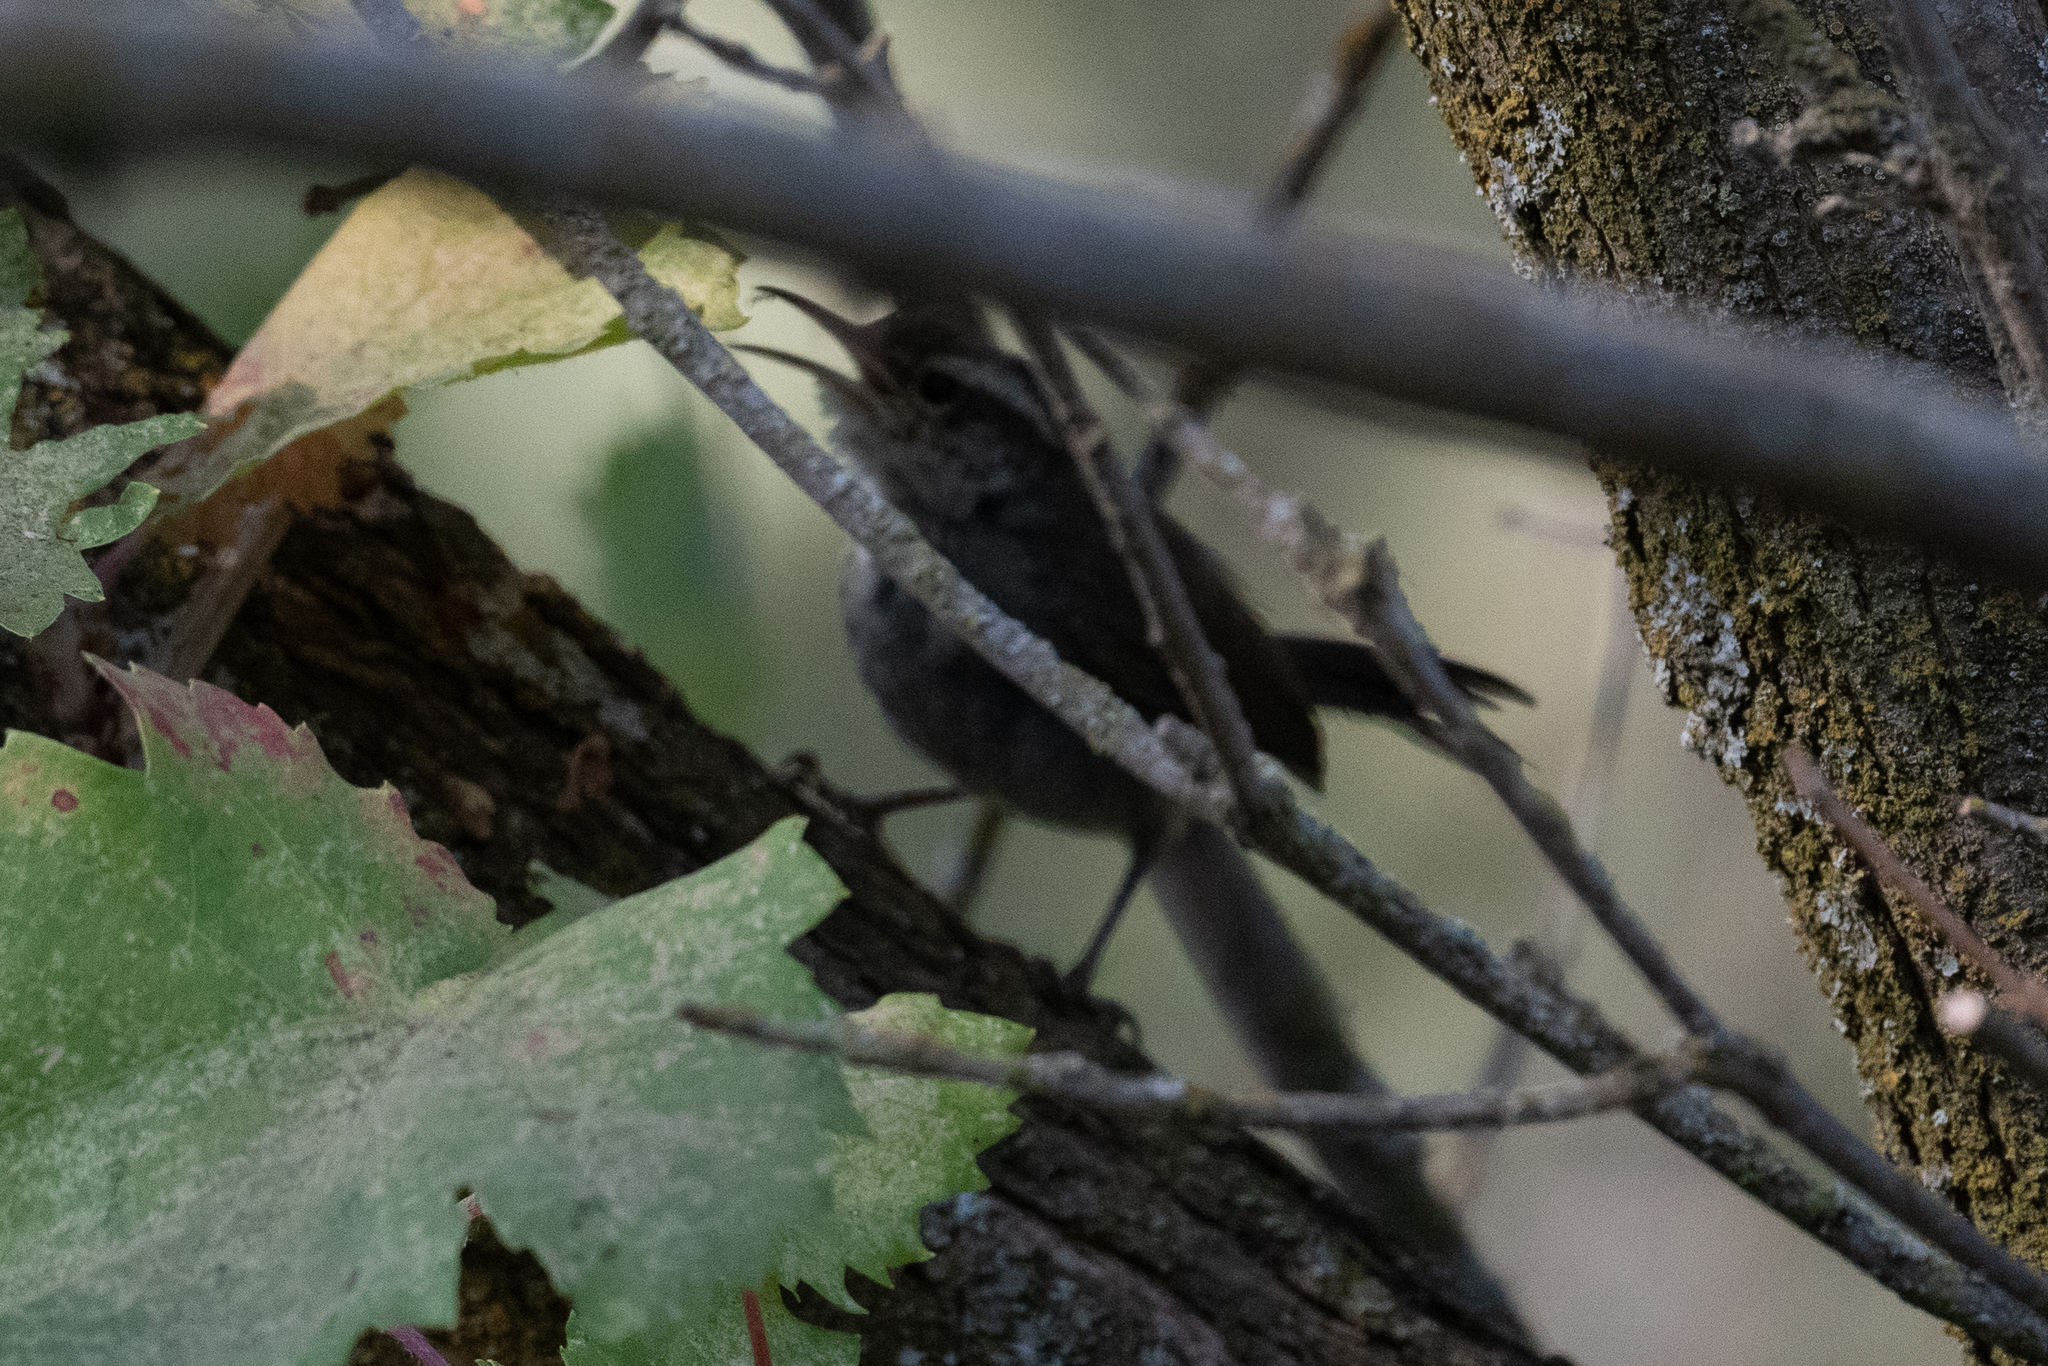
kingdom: Animalia
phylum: Chordata
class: Aves
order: Passeriformes
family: Troglodytidae
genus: Thryomanes
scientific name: Thryomanes bewickii
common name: Bewick's wren
